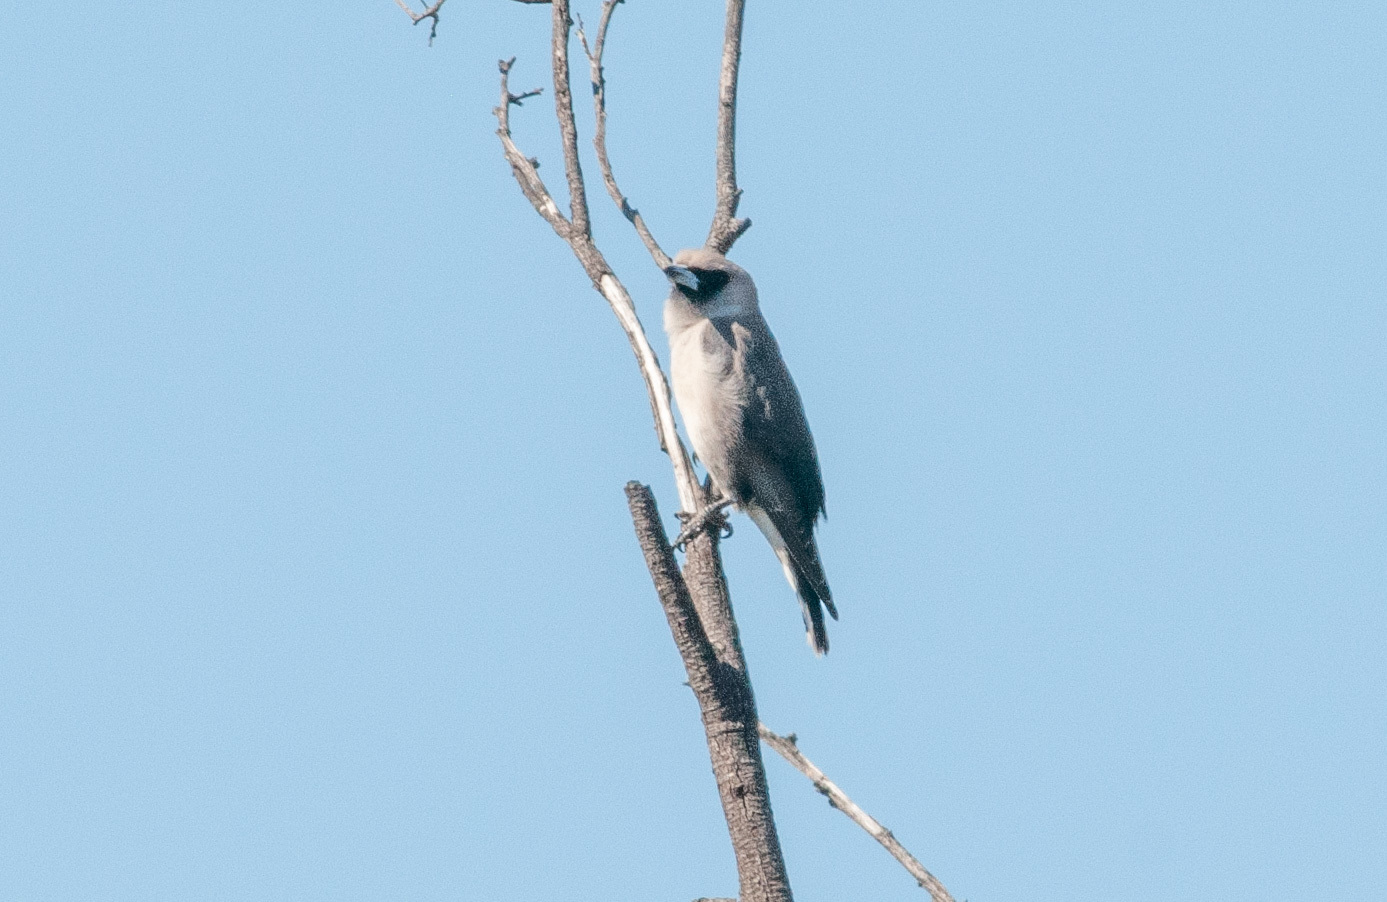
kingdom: Animalia
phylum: Chordata
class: Aves
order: Passeriformes
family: Artamidae
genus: Artamus
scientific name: Artamus cinereus
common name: Black-faced woodswallow
